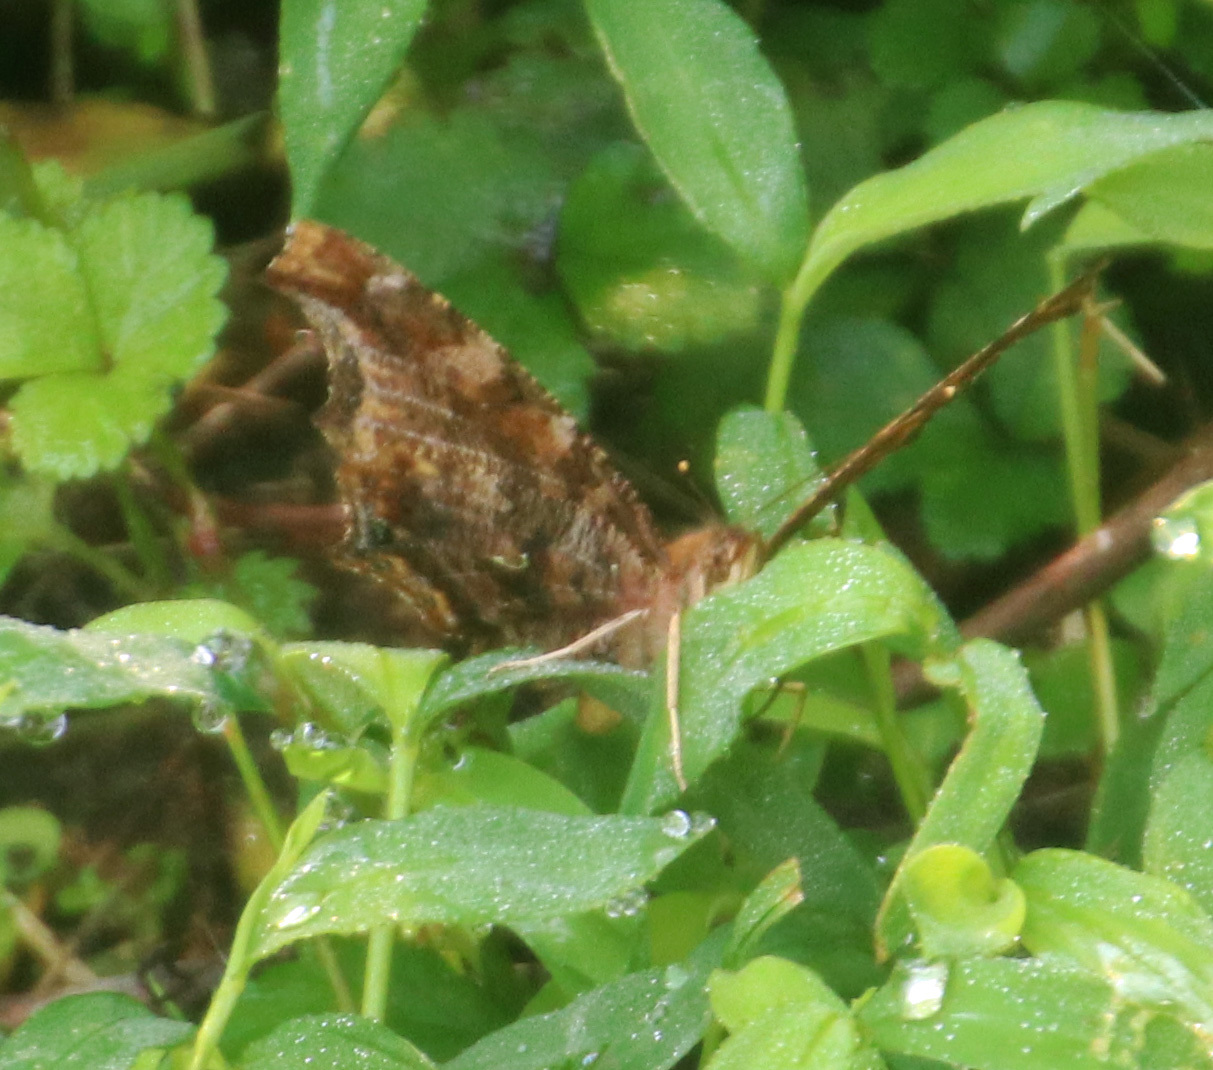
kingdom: Animalia
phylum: Arthropoda
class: Insecta
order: Lepidoptera
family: Nymphalidae
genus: Polygonia
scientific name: Polygonia comma
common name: Eastern comma
